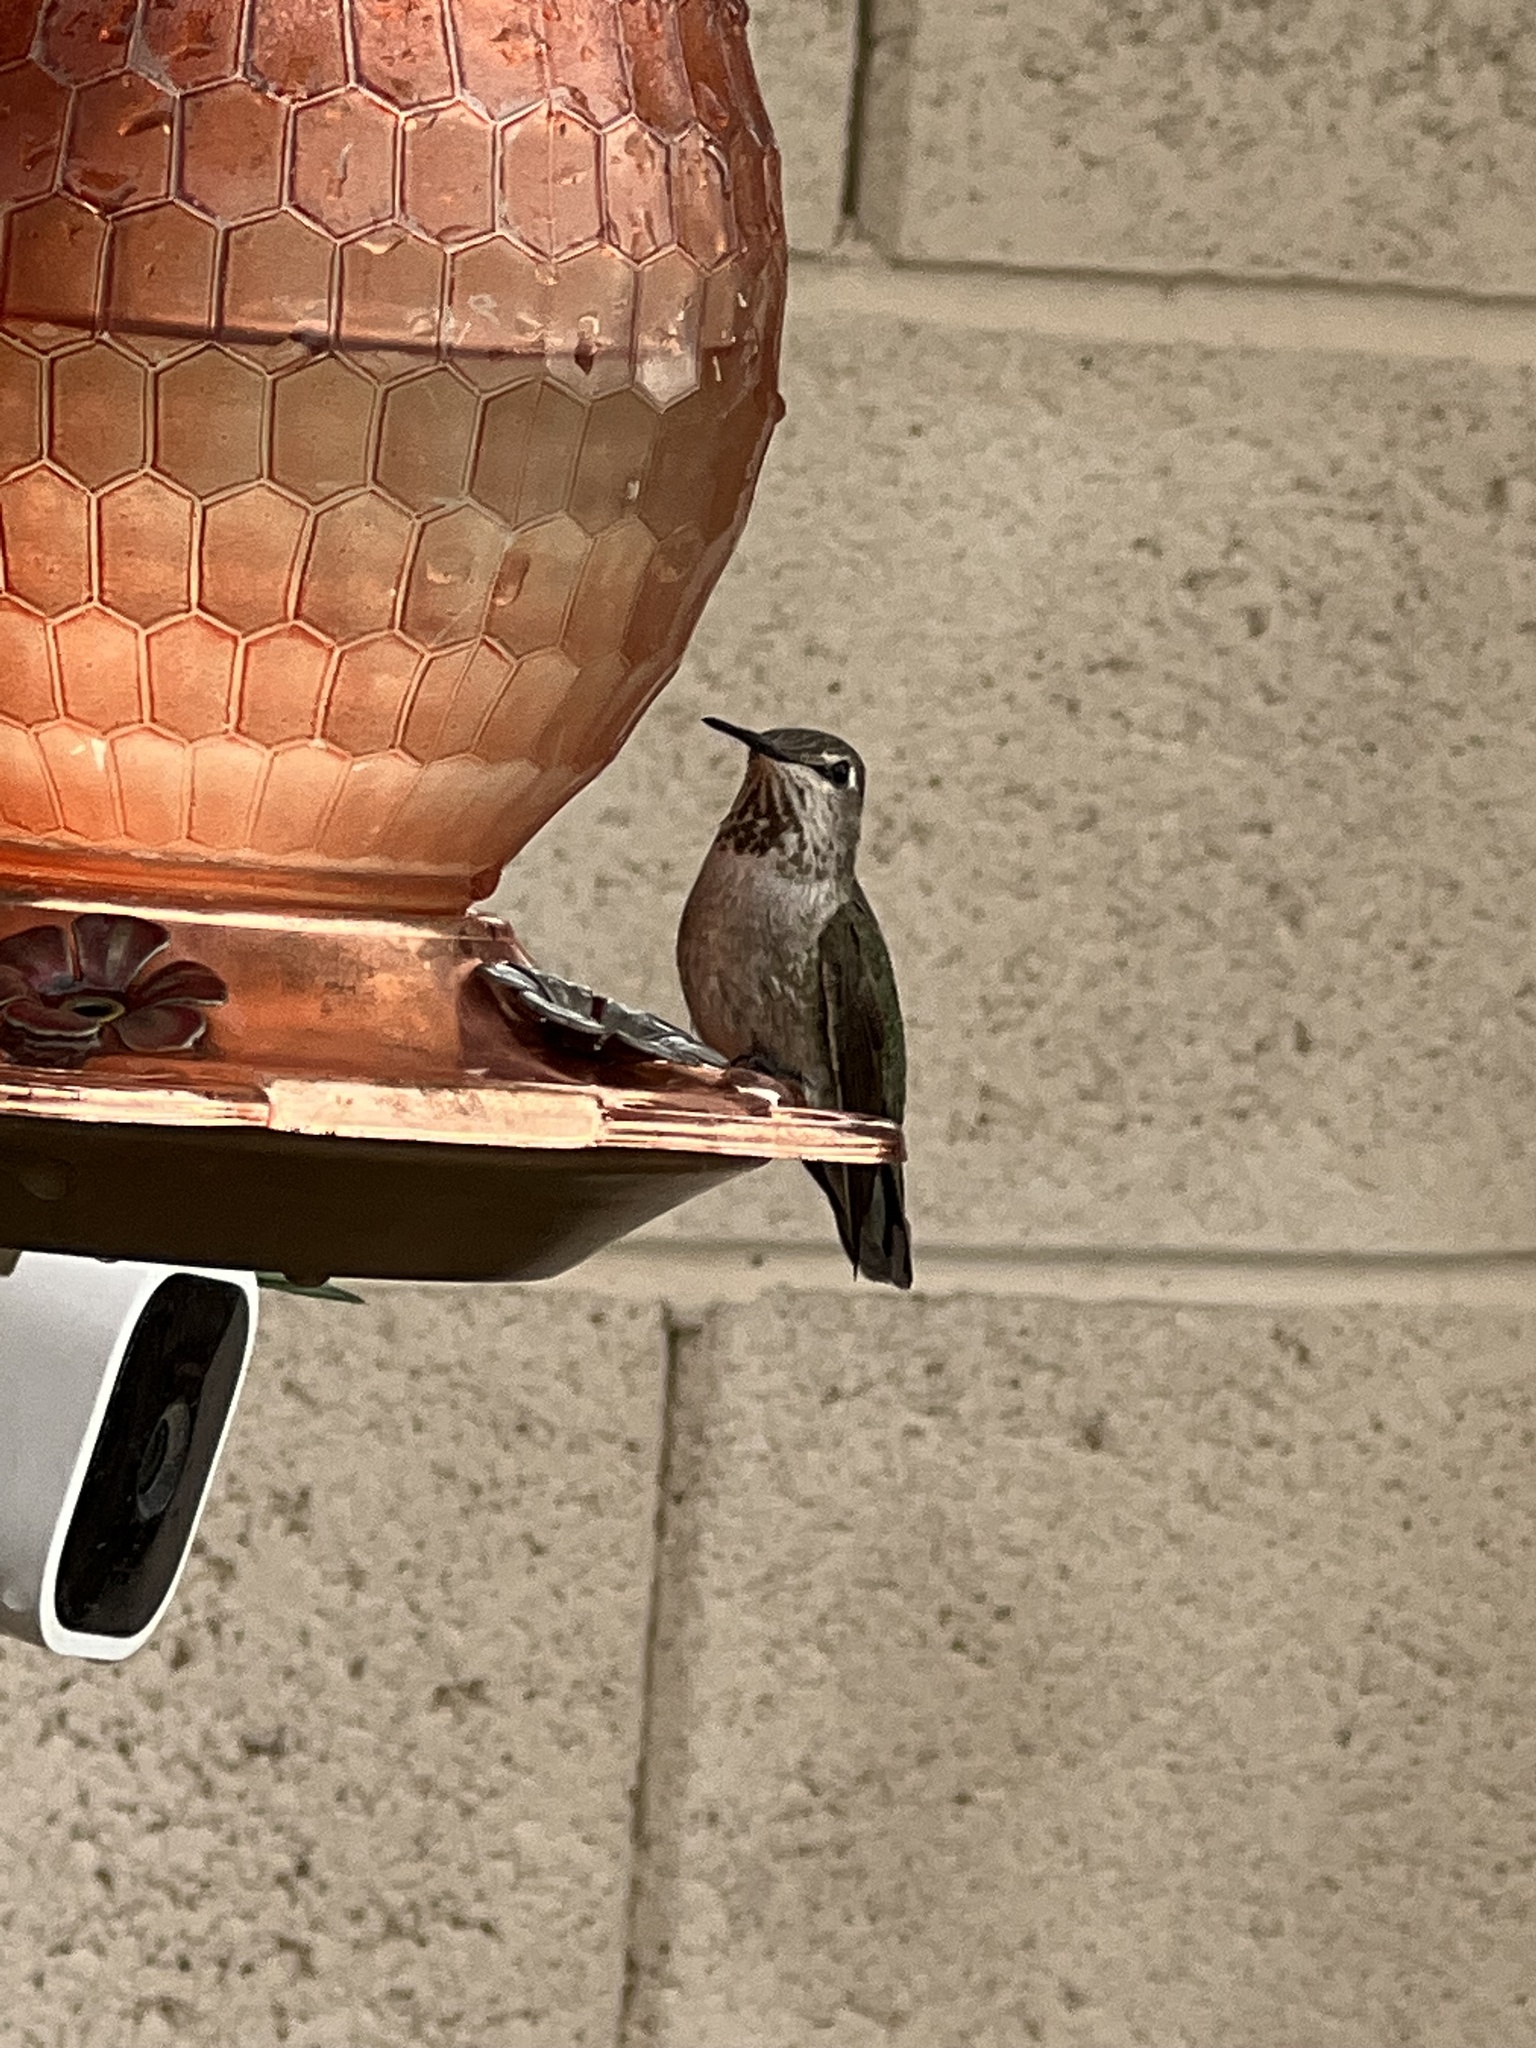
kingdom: Animalia
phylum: Chordata
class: Aves
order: Apodiformes
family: Trochilidae
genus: Calypte
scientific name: Calypte anna
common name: Anna's hummingbird
